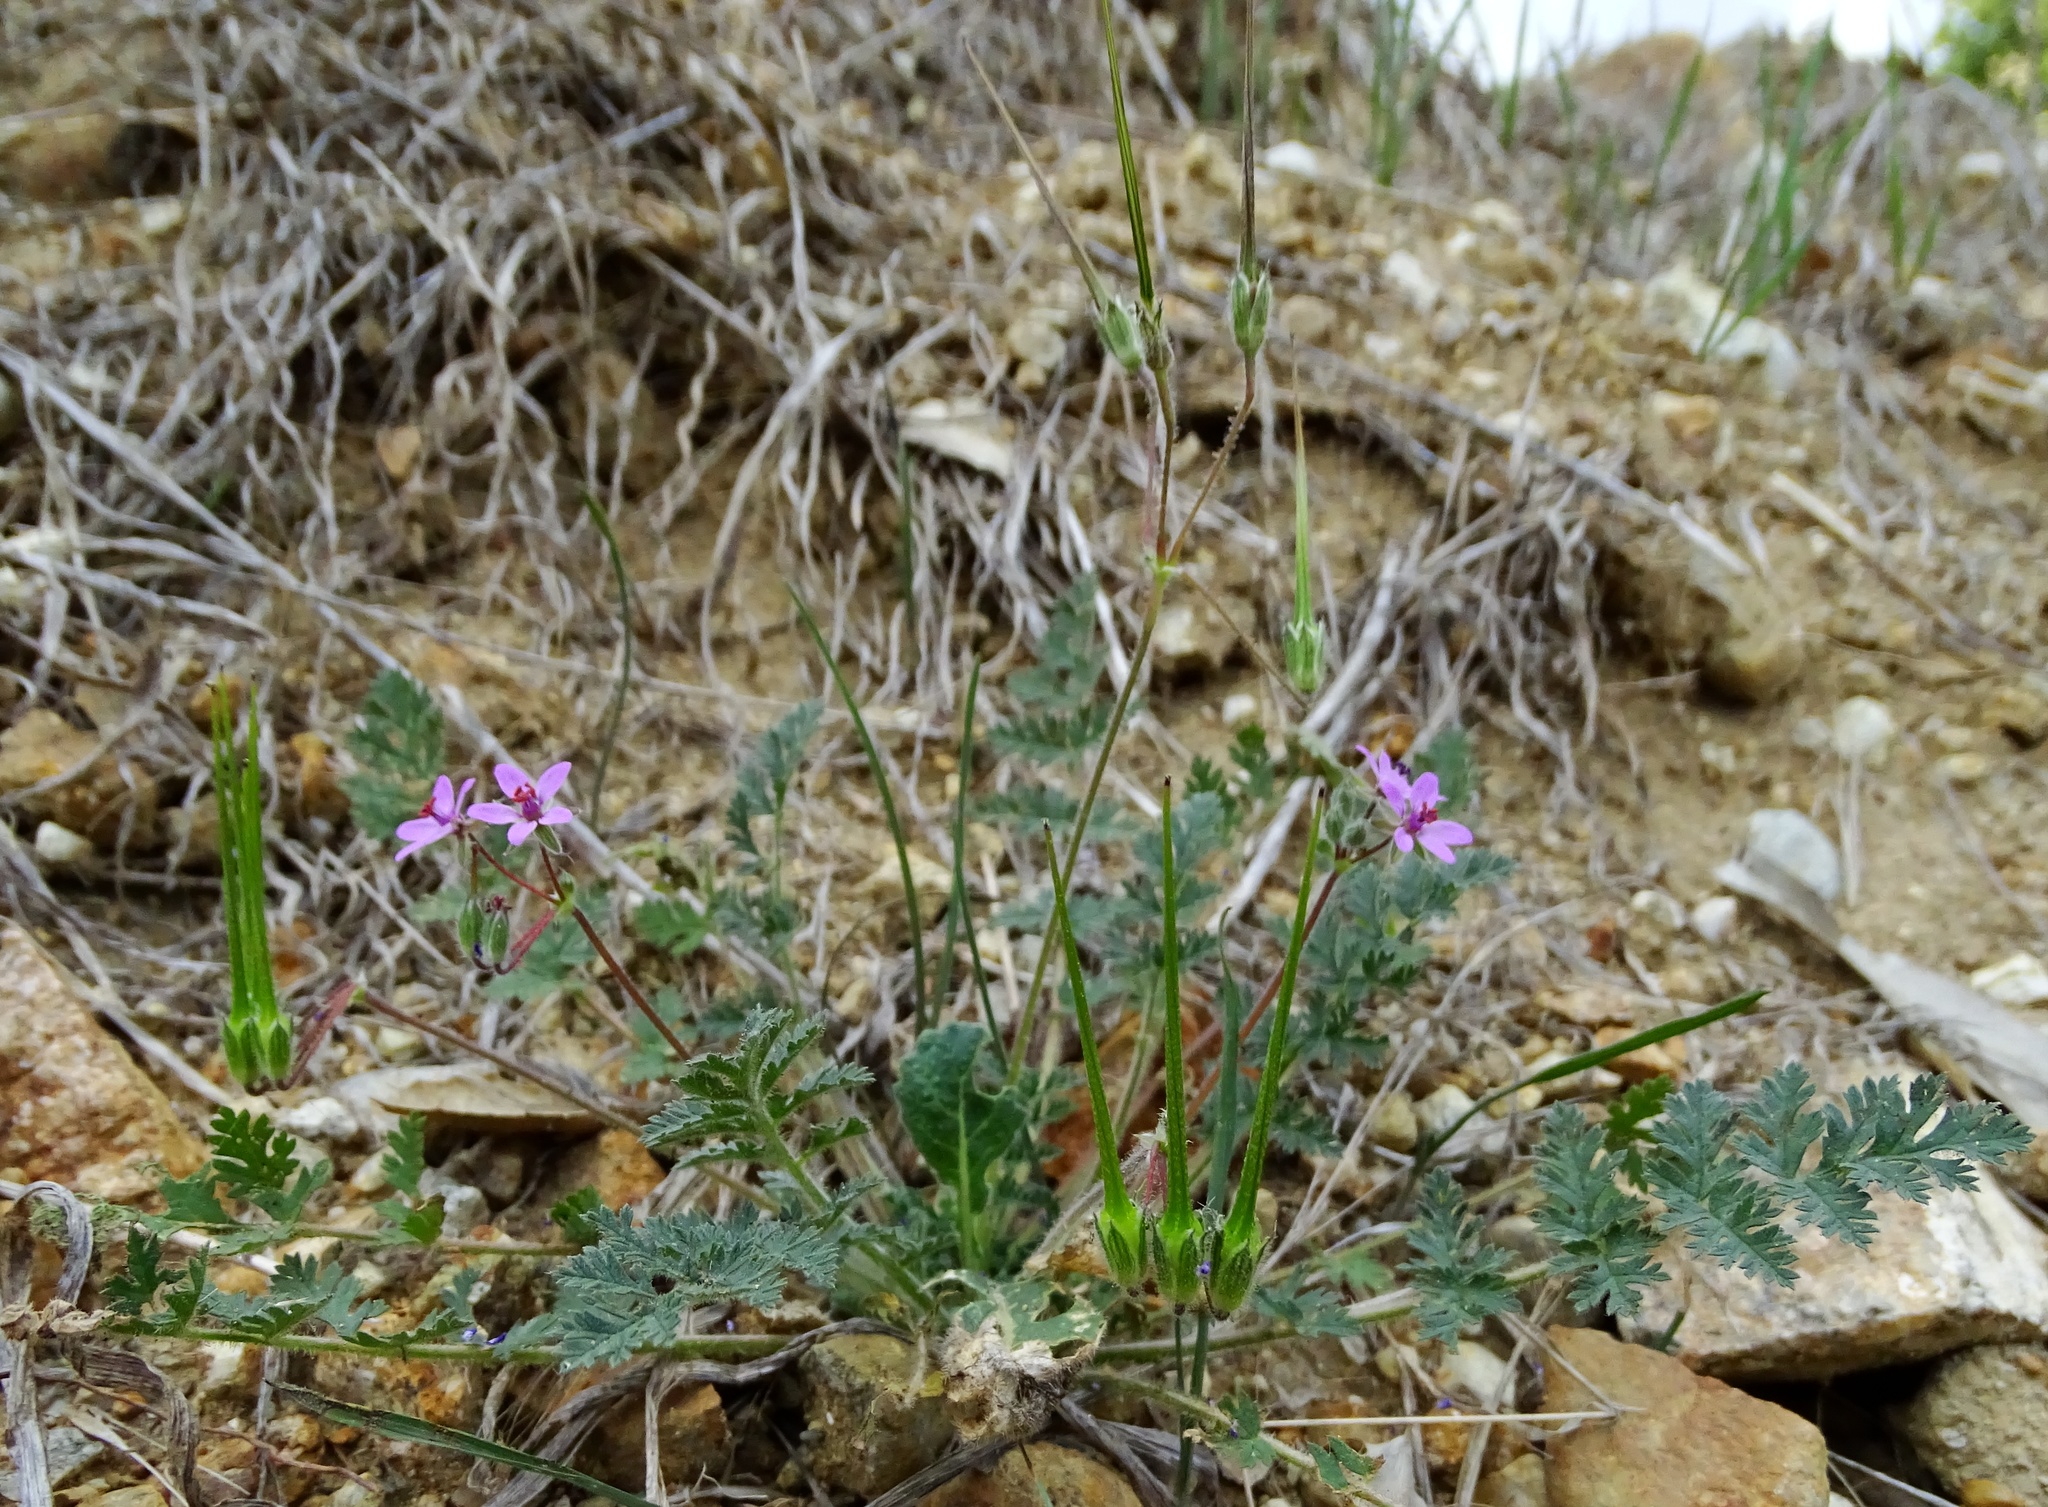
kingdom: Plantae
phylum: Tracheophyta
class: Magnoliopsida
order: Geraniales
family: Geraniaceae
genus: Erodium
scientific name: Erodium cicutarium
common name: Common stork's-bill
